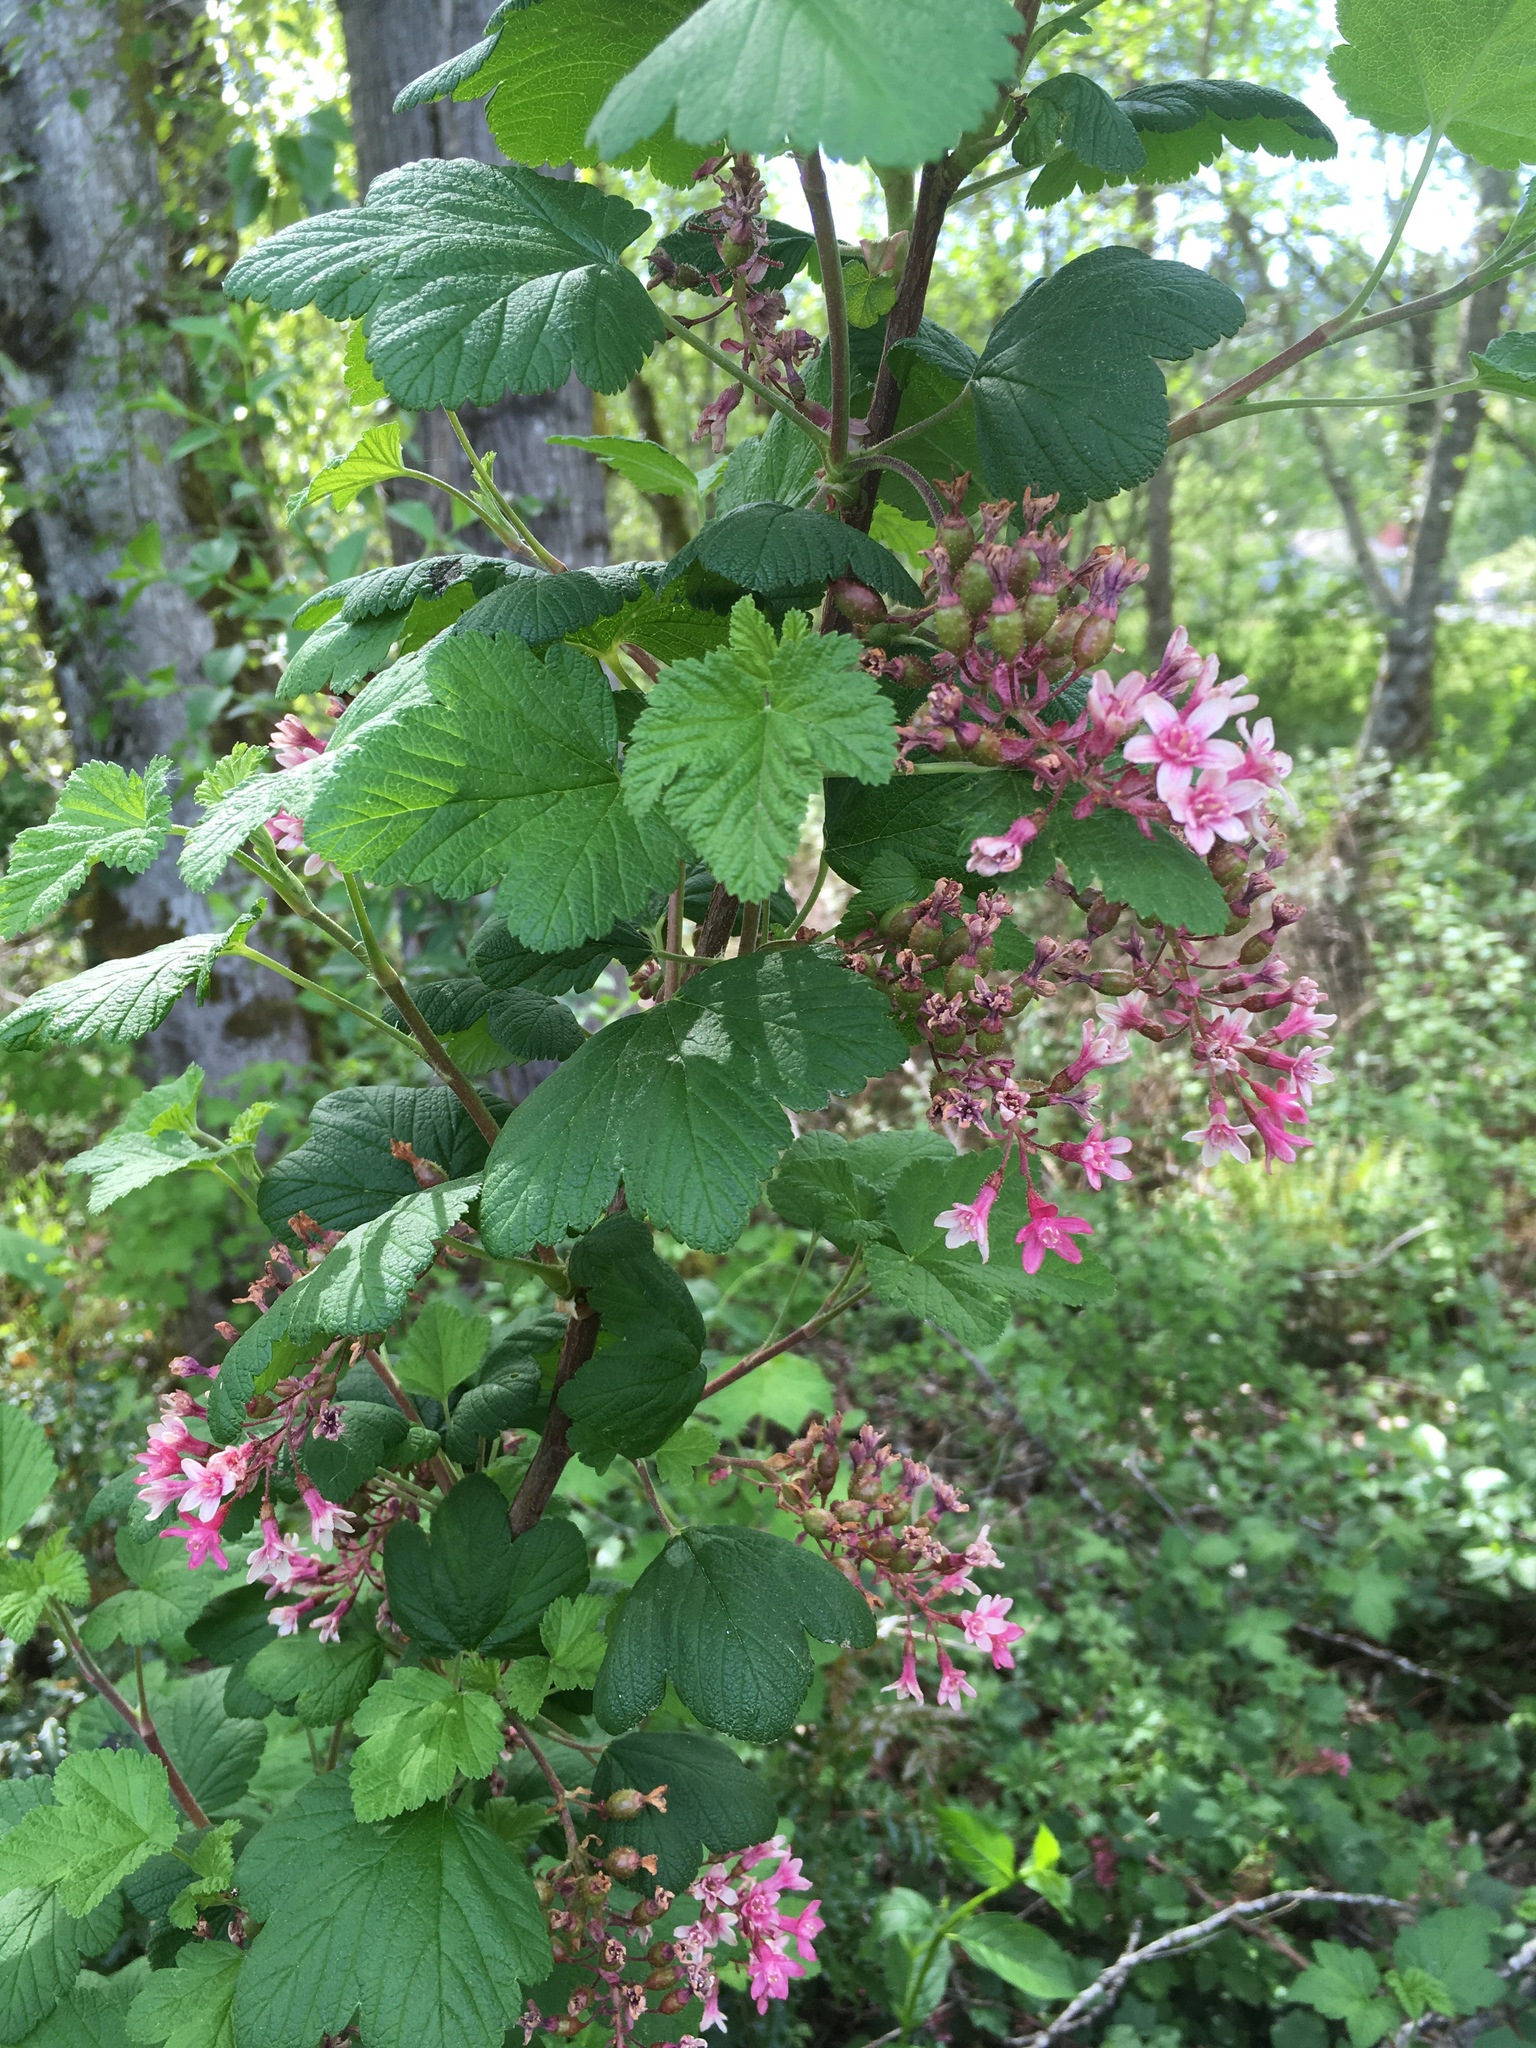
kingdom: Plantae
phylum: Tracheophyta
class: Magnoliopsida
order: Saxifragales
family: Grossulariaceae
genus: Ribes
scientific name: Ribes sanguineum
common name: Flowering currant
